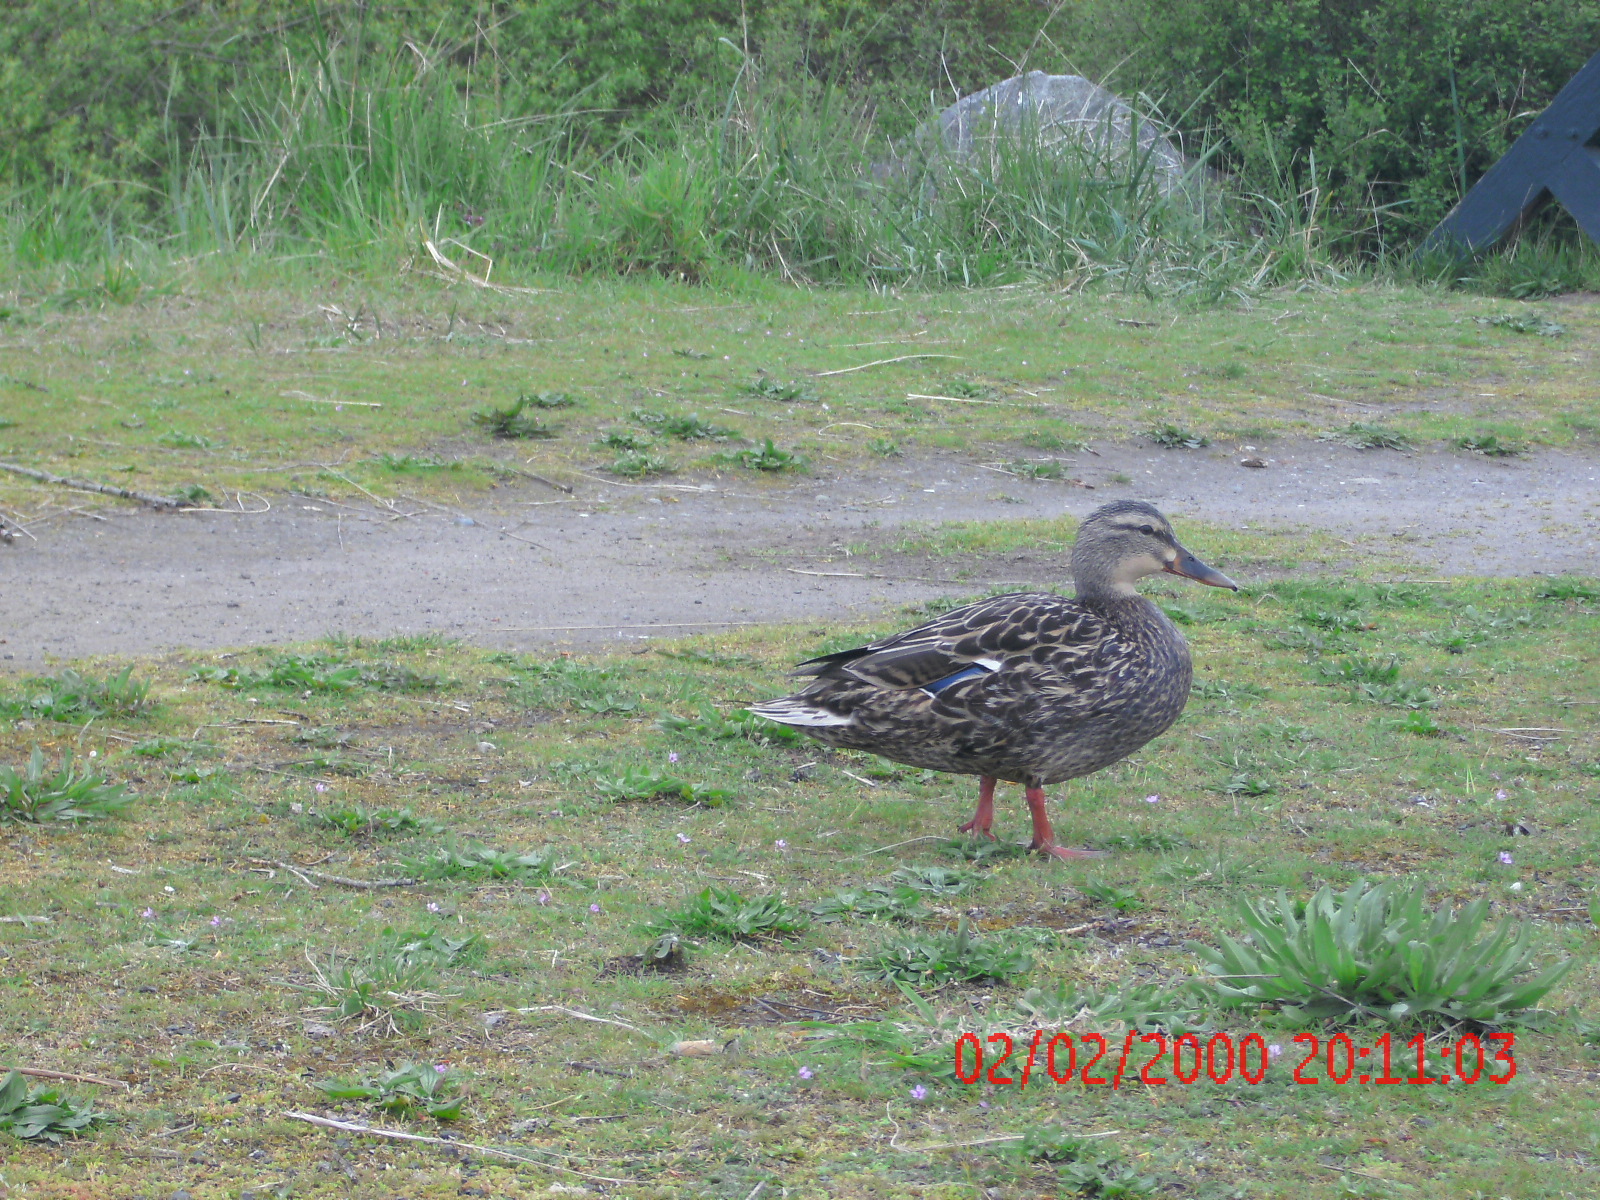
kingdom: Animalia
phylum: Chordata
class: Aves
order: Anseriformes
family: Anatidae
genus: Anas
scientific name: Anas platyrhynchos
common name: Mallard
